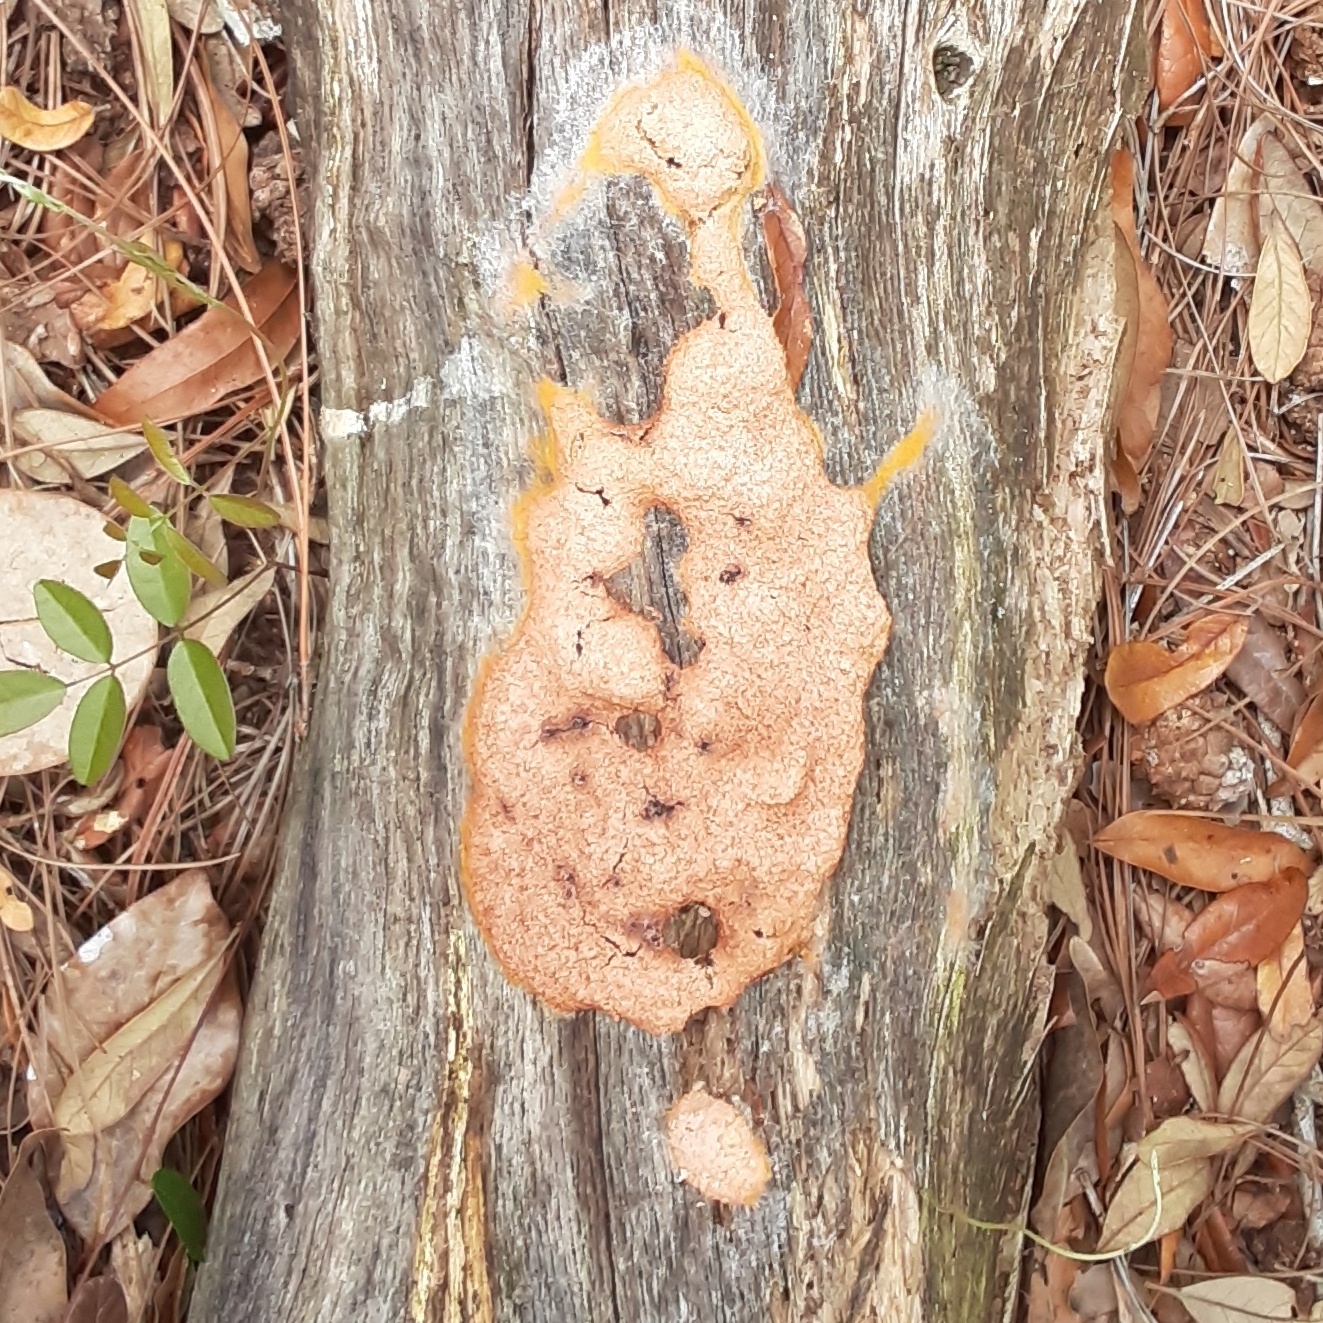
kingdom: Protozoa
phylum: Mycetozoa
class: Myxomycetes
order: Physarales
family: Physaraceae
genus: Fuligo
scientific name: Fuligo septica
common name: Dog vomit slime mold
